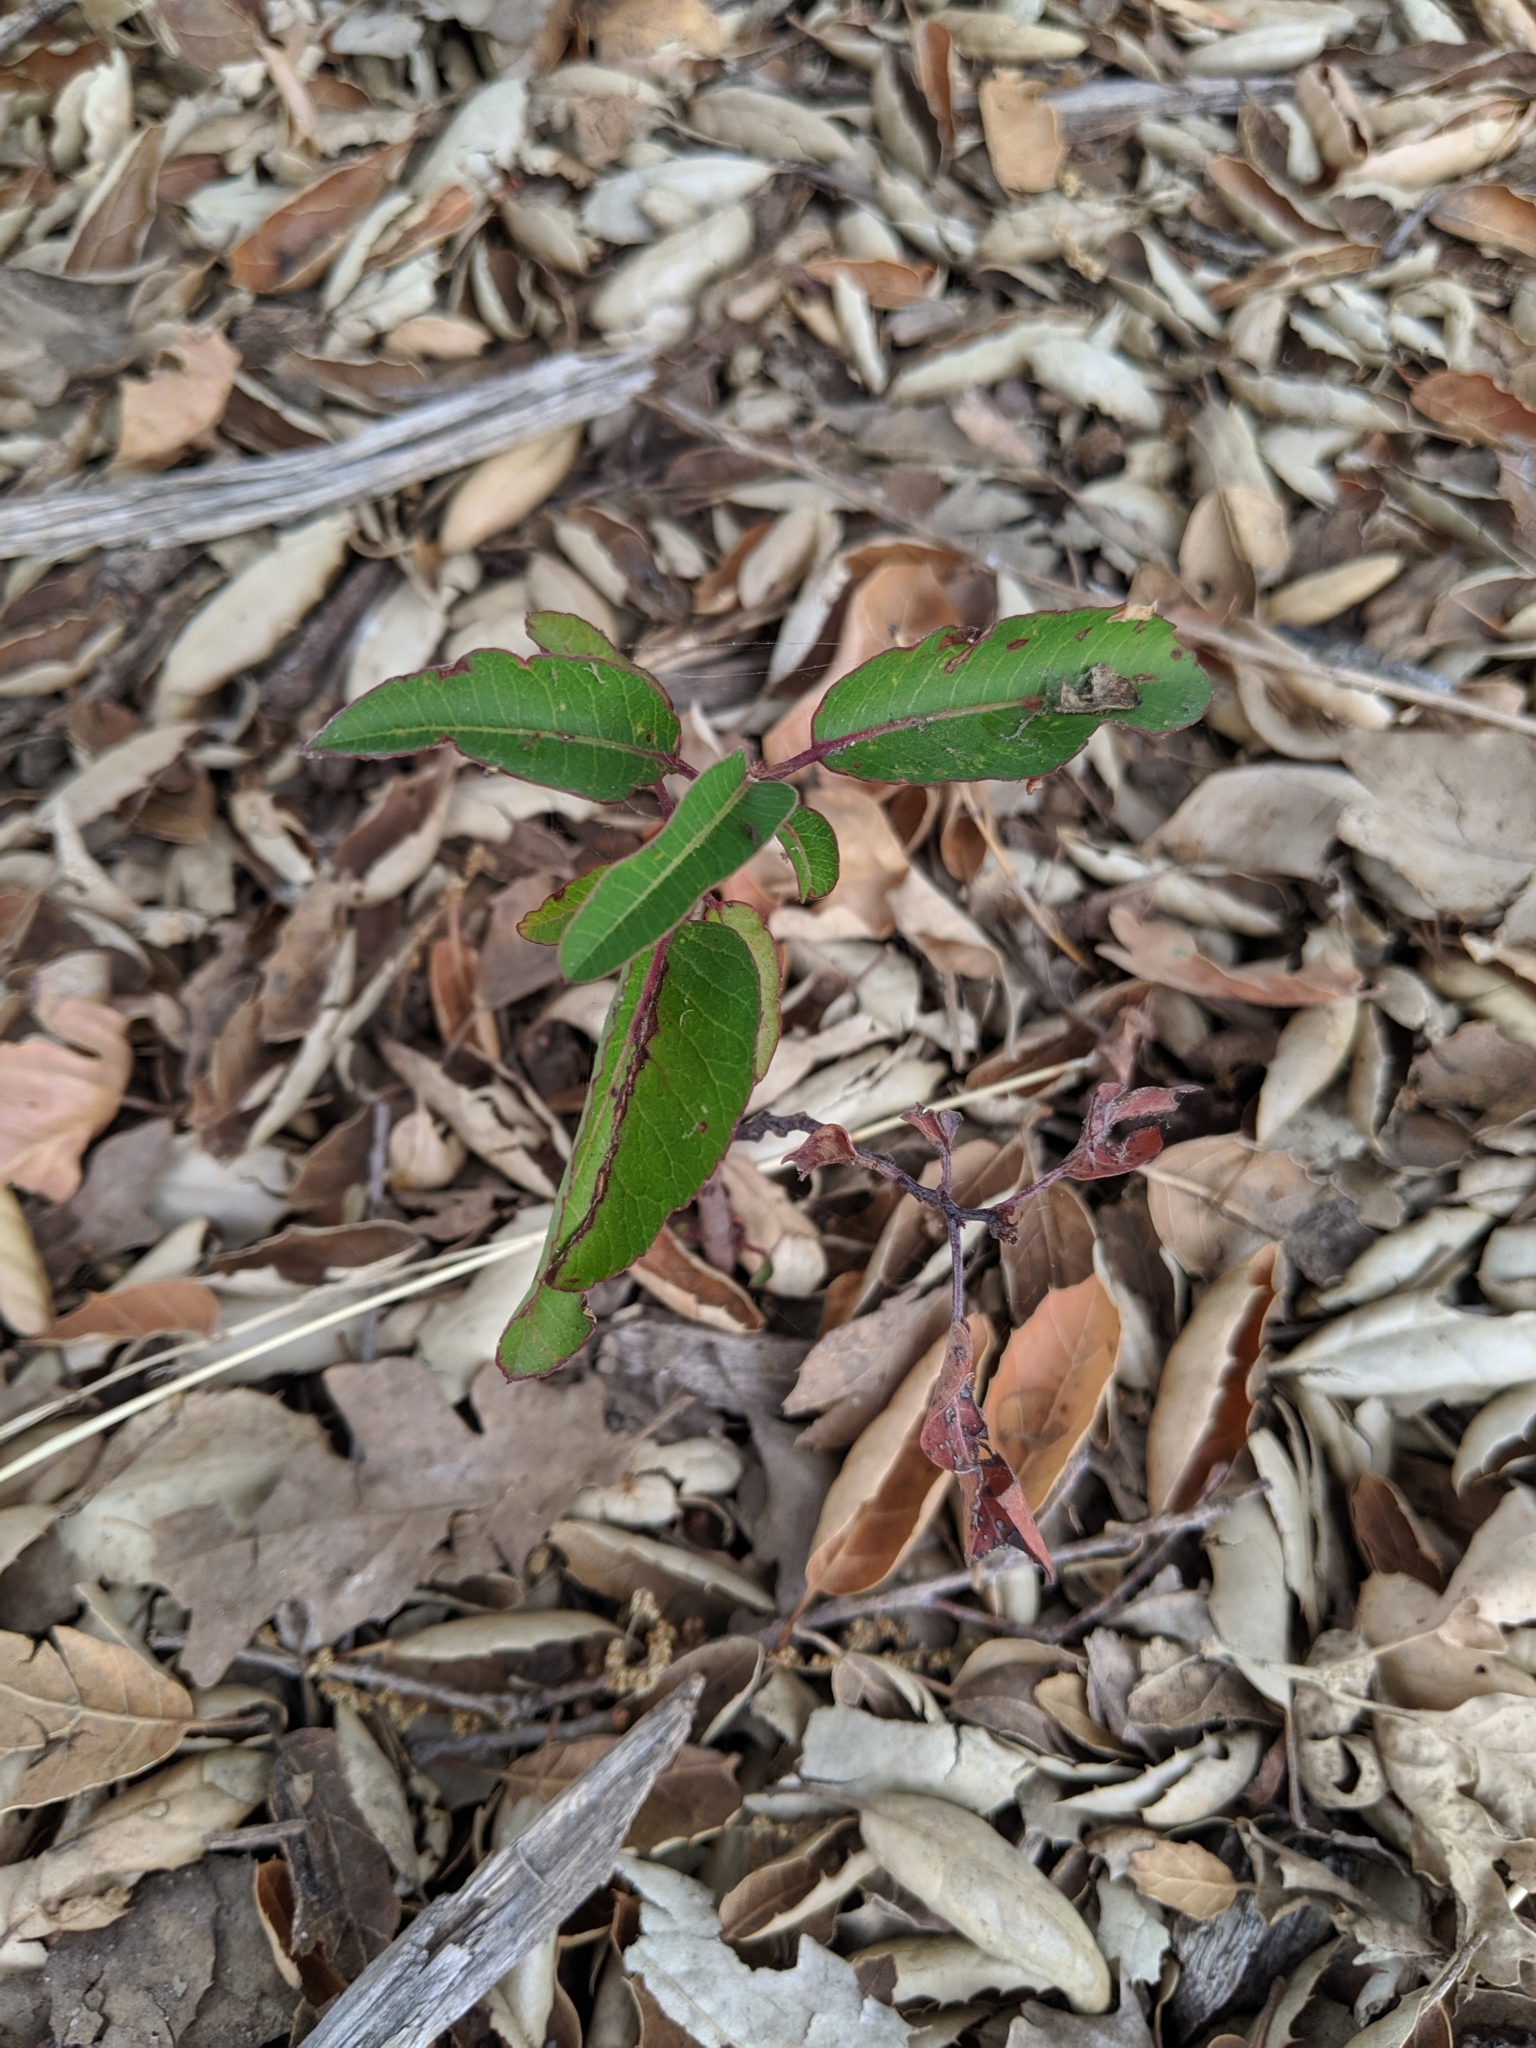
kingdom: Plantae
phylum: Tracheophyta
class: Magnoliopsida
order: Sapindales
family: Anacardiaceae
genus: Malosma
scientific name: Malosma laurina
